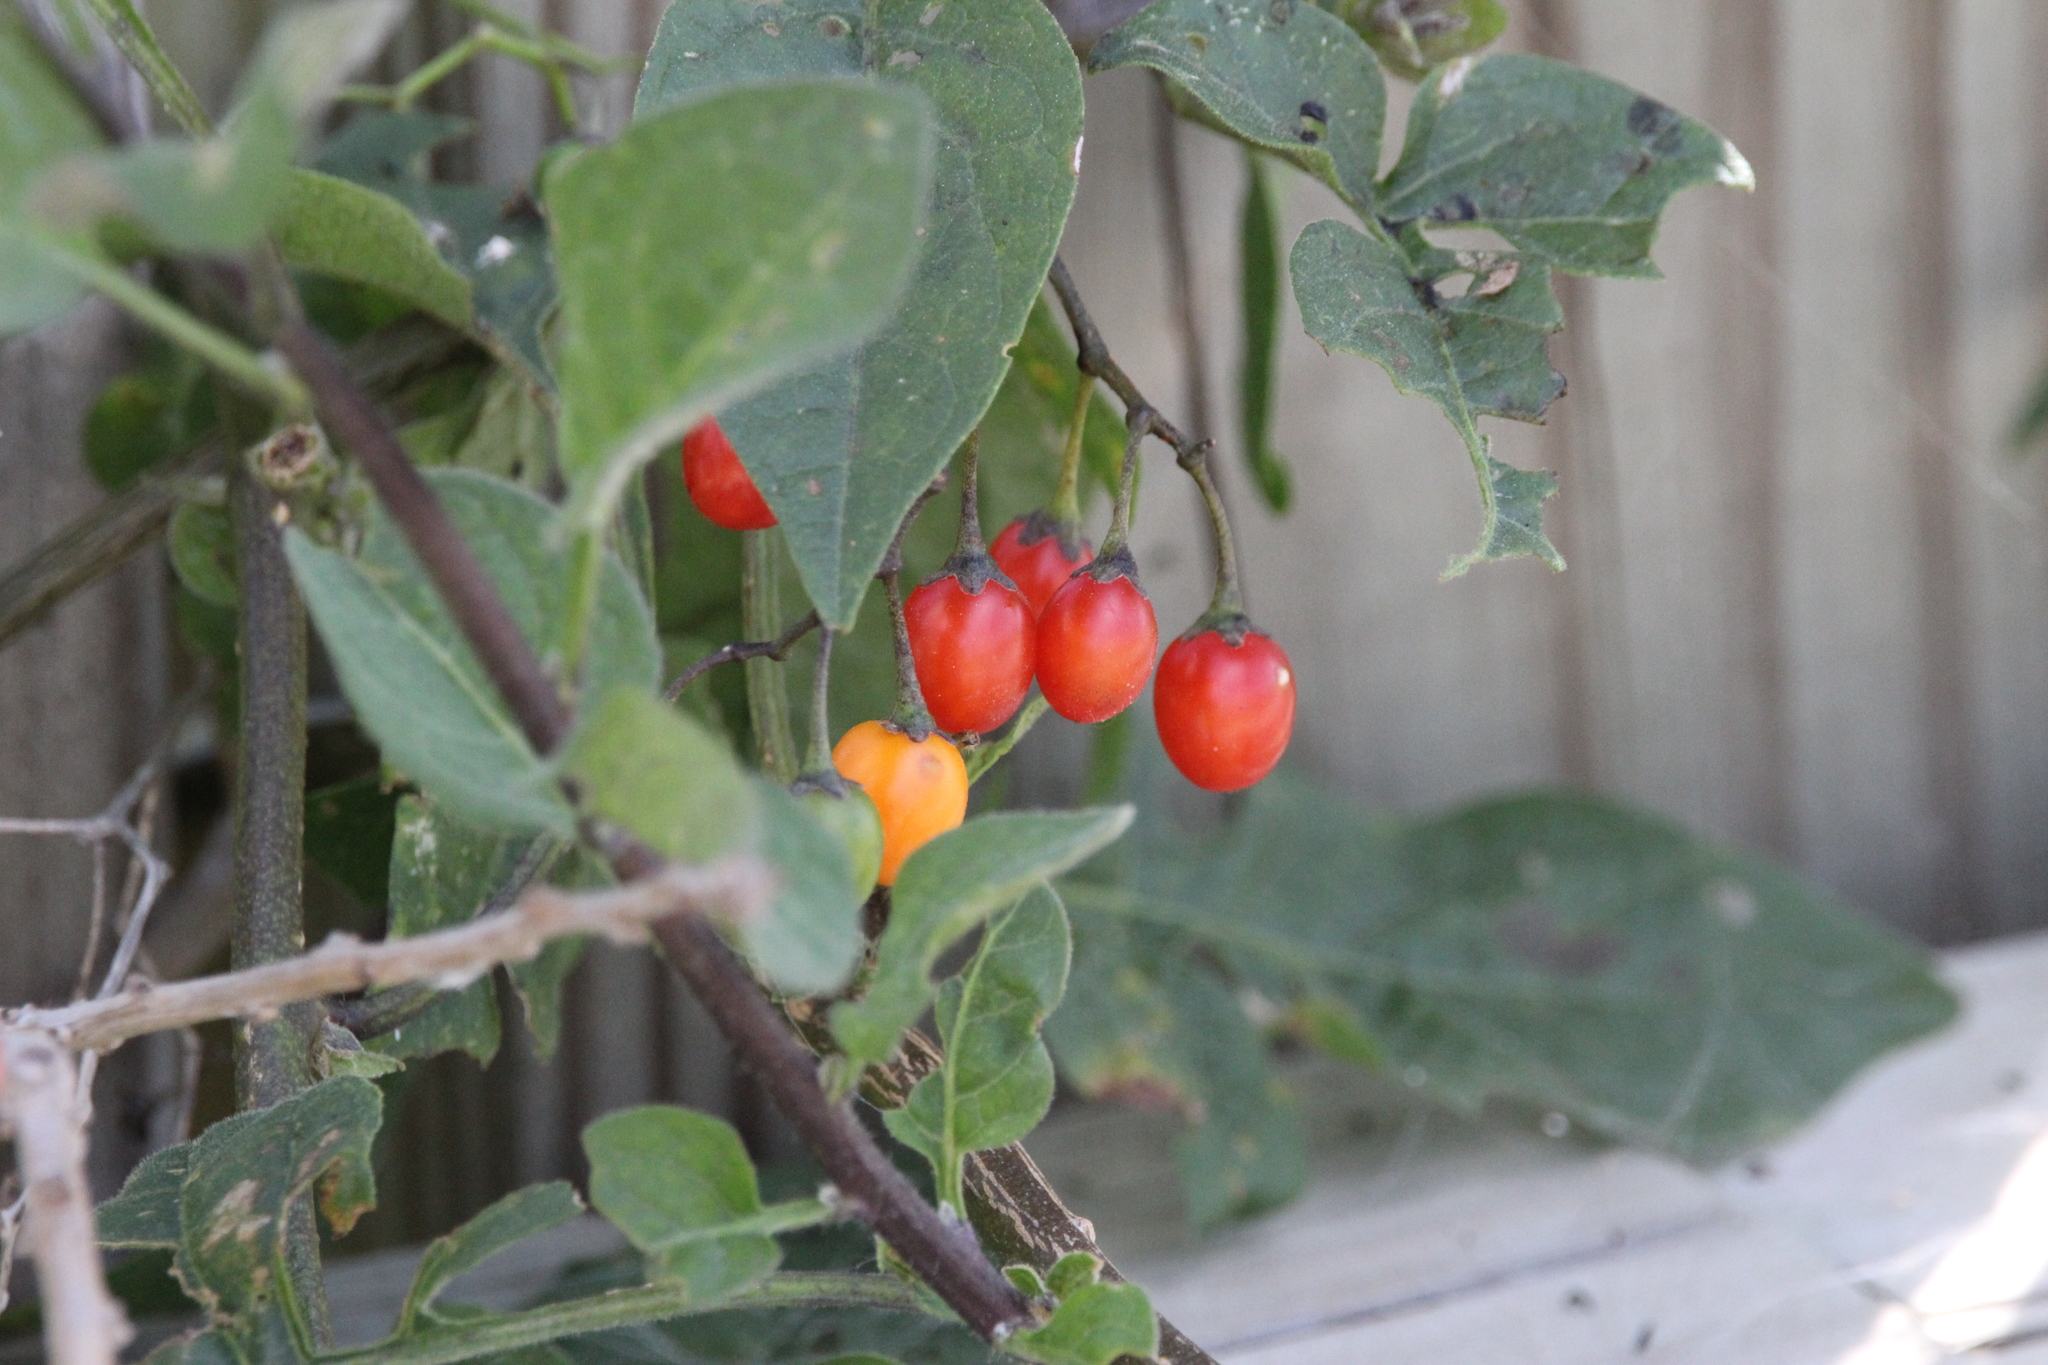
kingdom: Plantae
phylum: Tracheophyta
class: Magnoliopsida
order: Solanales
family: Solanaceae
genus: Solanum
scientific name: Solanum dulcamara
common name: Climbing nightshade
